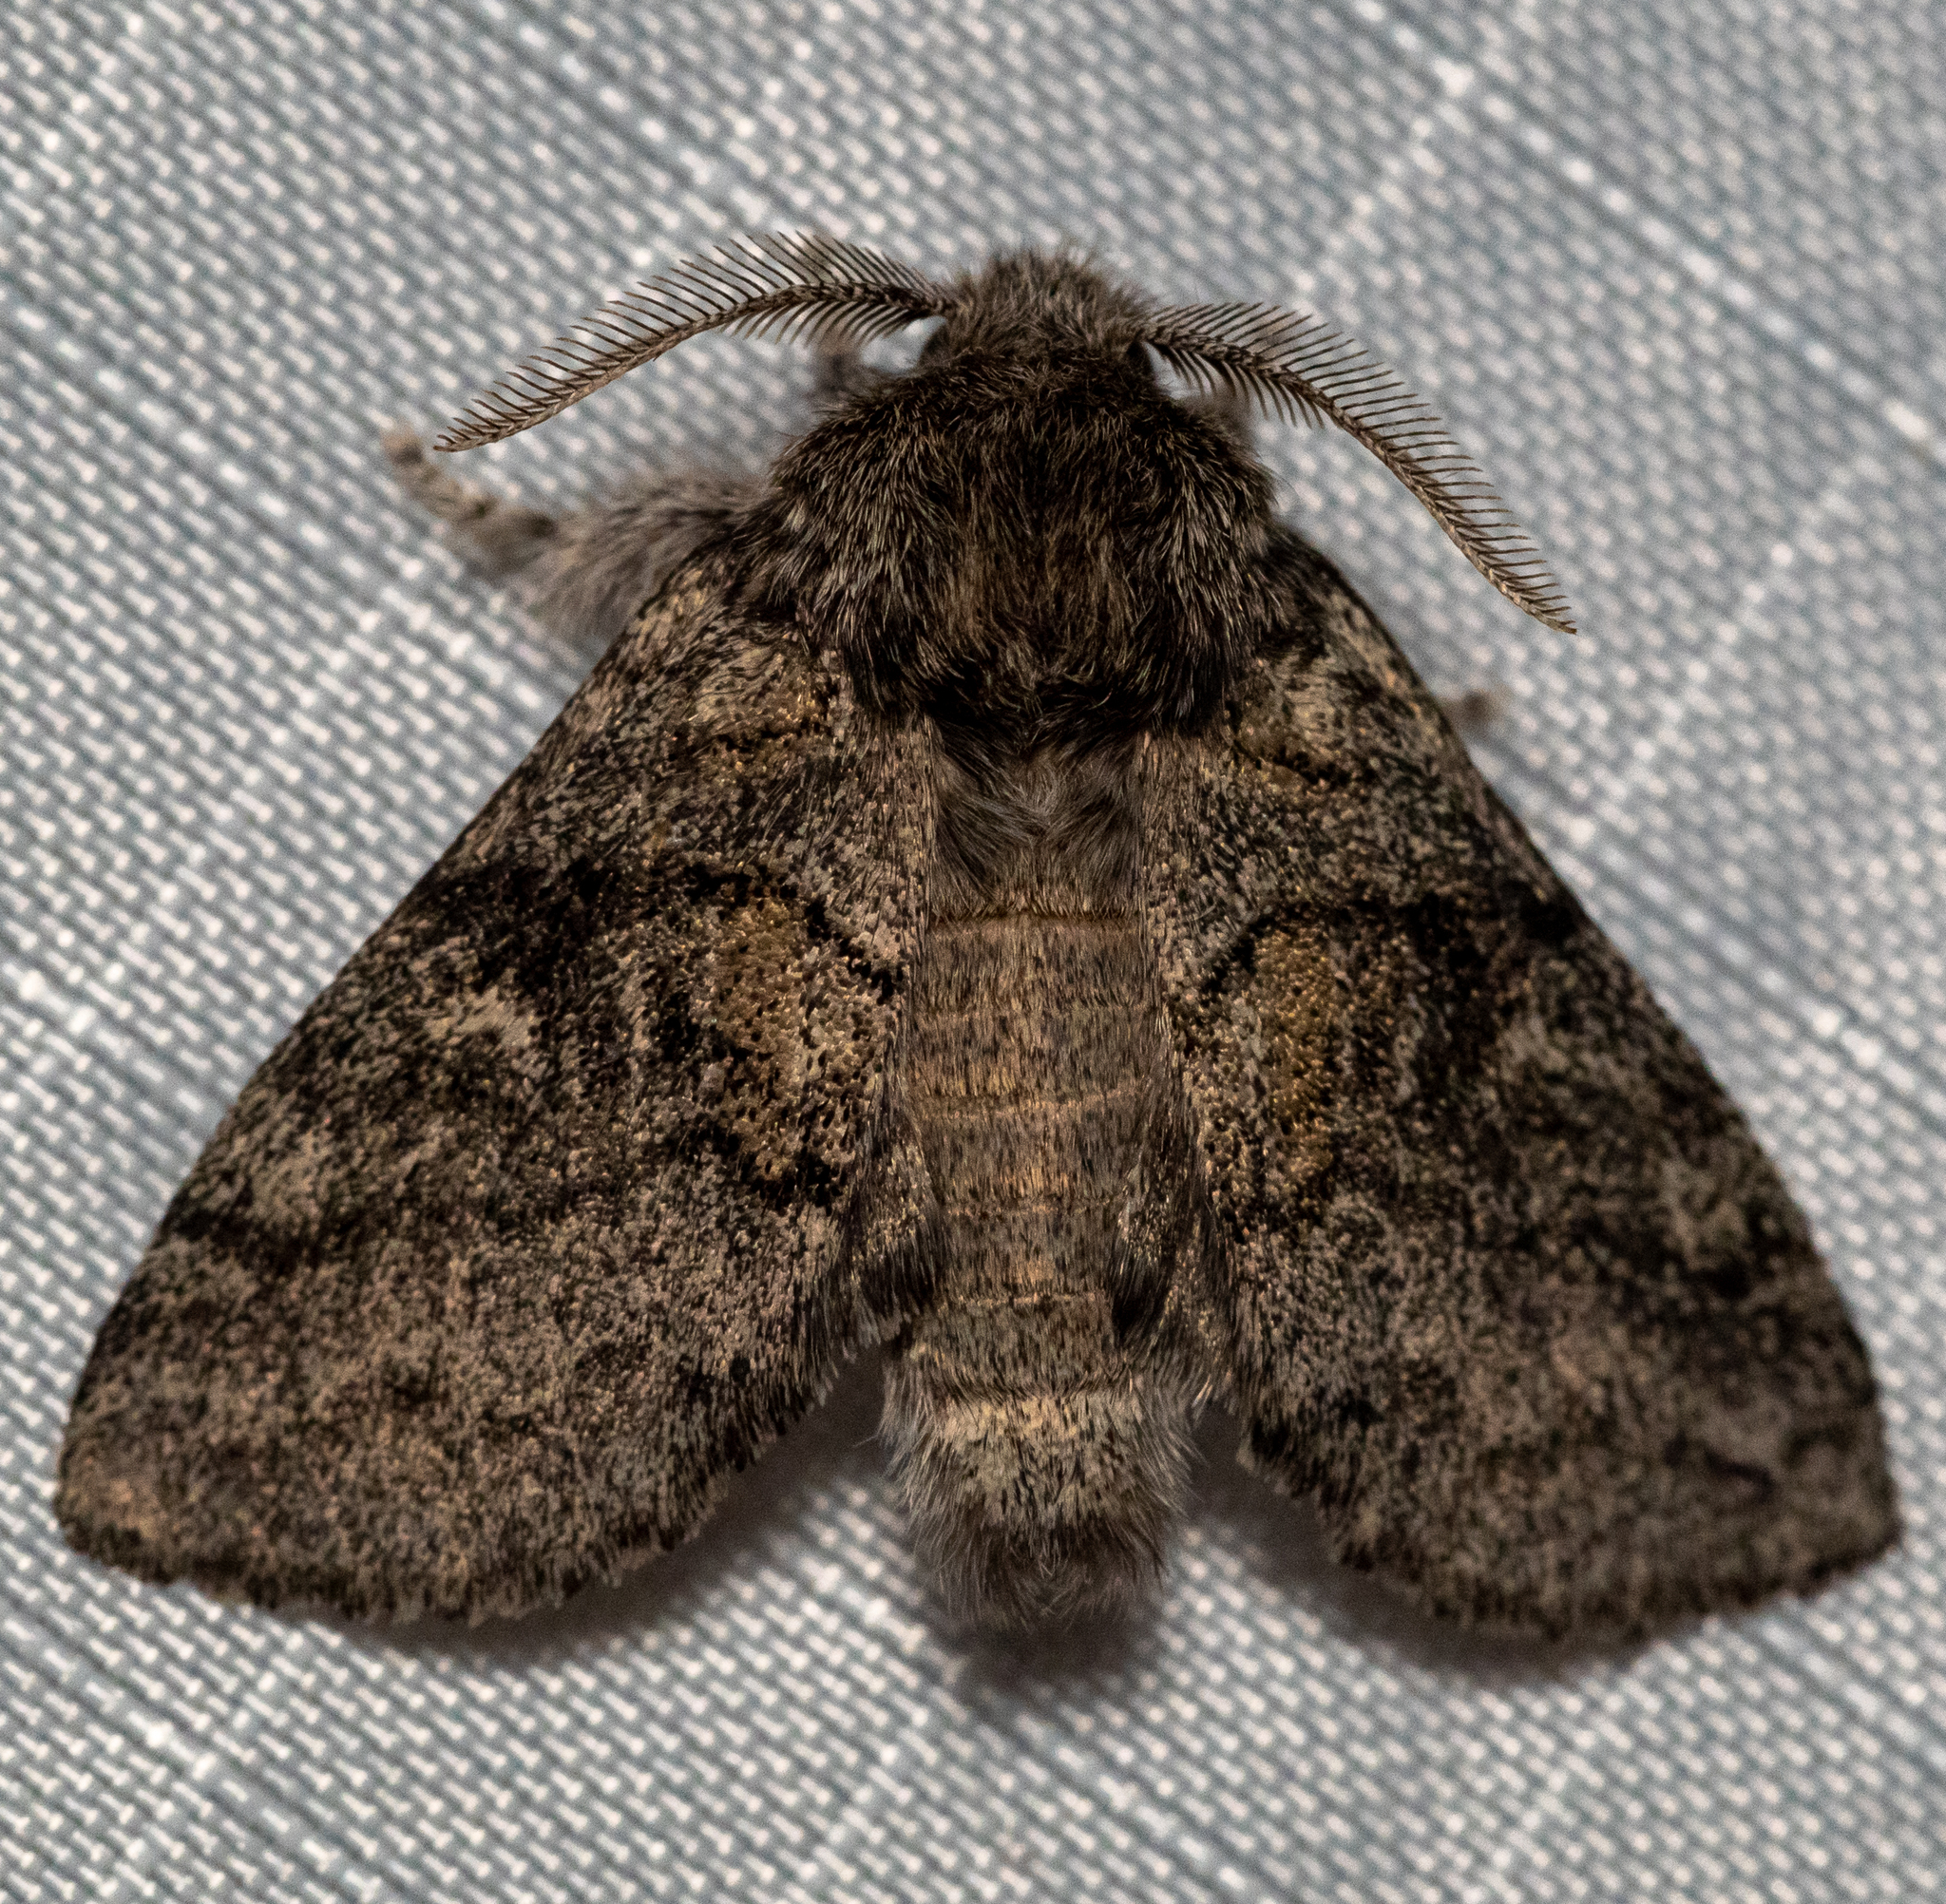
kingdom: Animalia
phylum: Arthropoda
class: Insecta
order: Lepidoptera
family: Notodontidae
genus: Gluphisia
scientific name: Gluphisia septentrionis
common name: Common gluphisia
